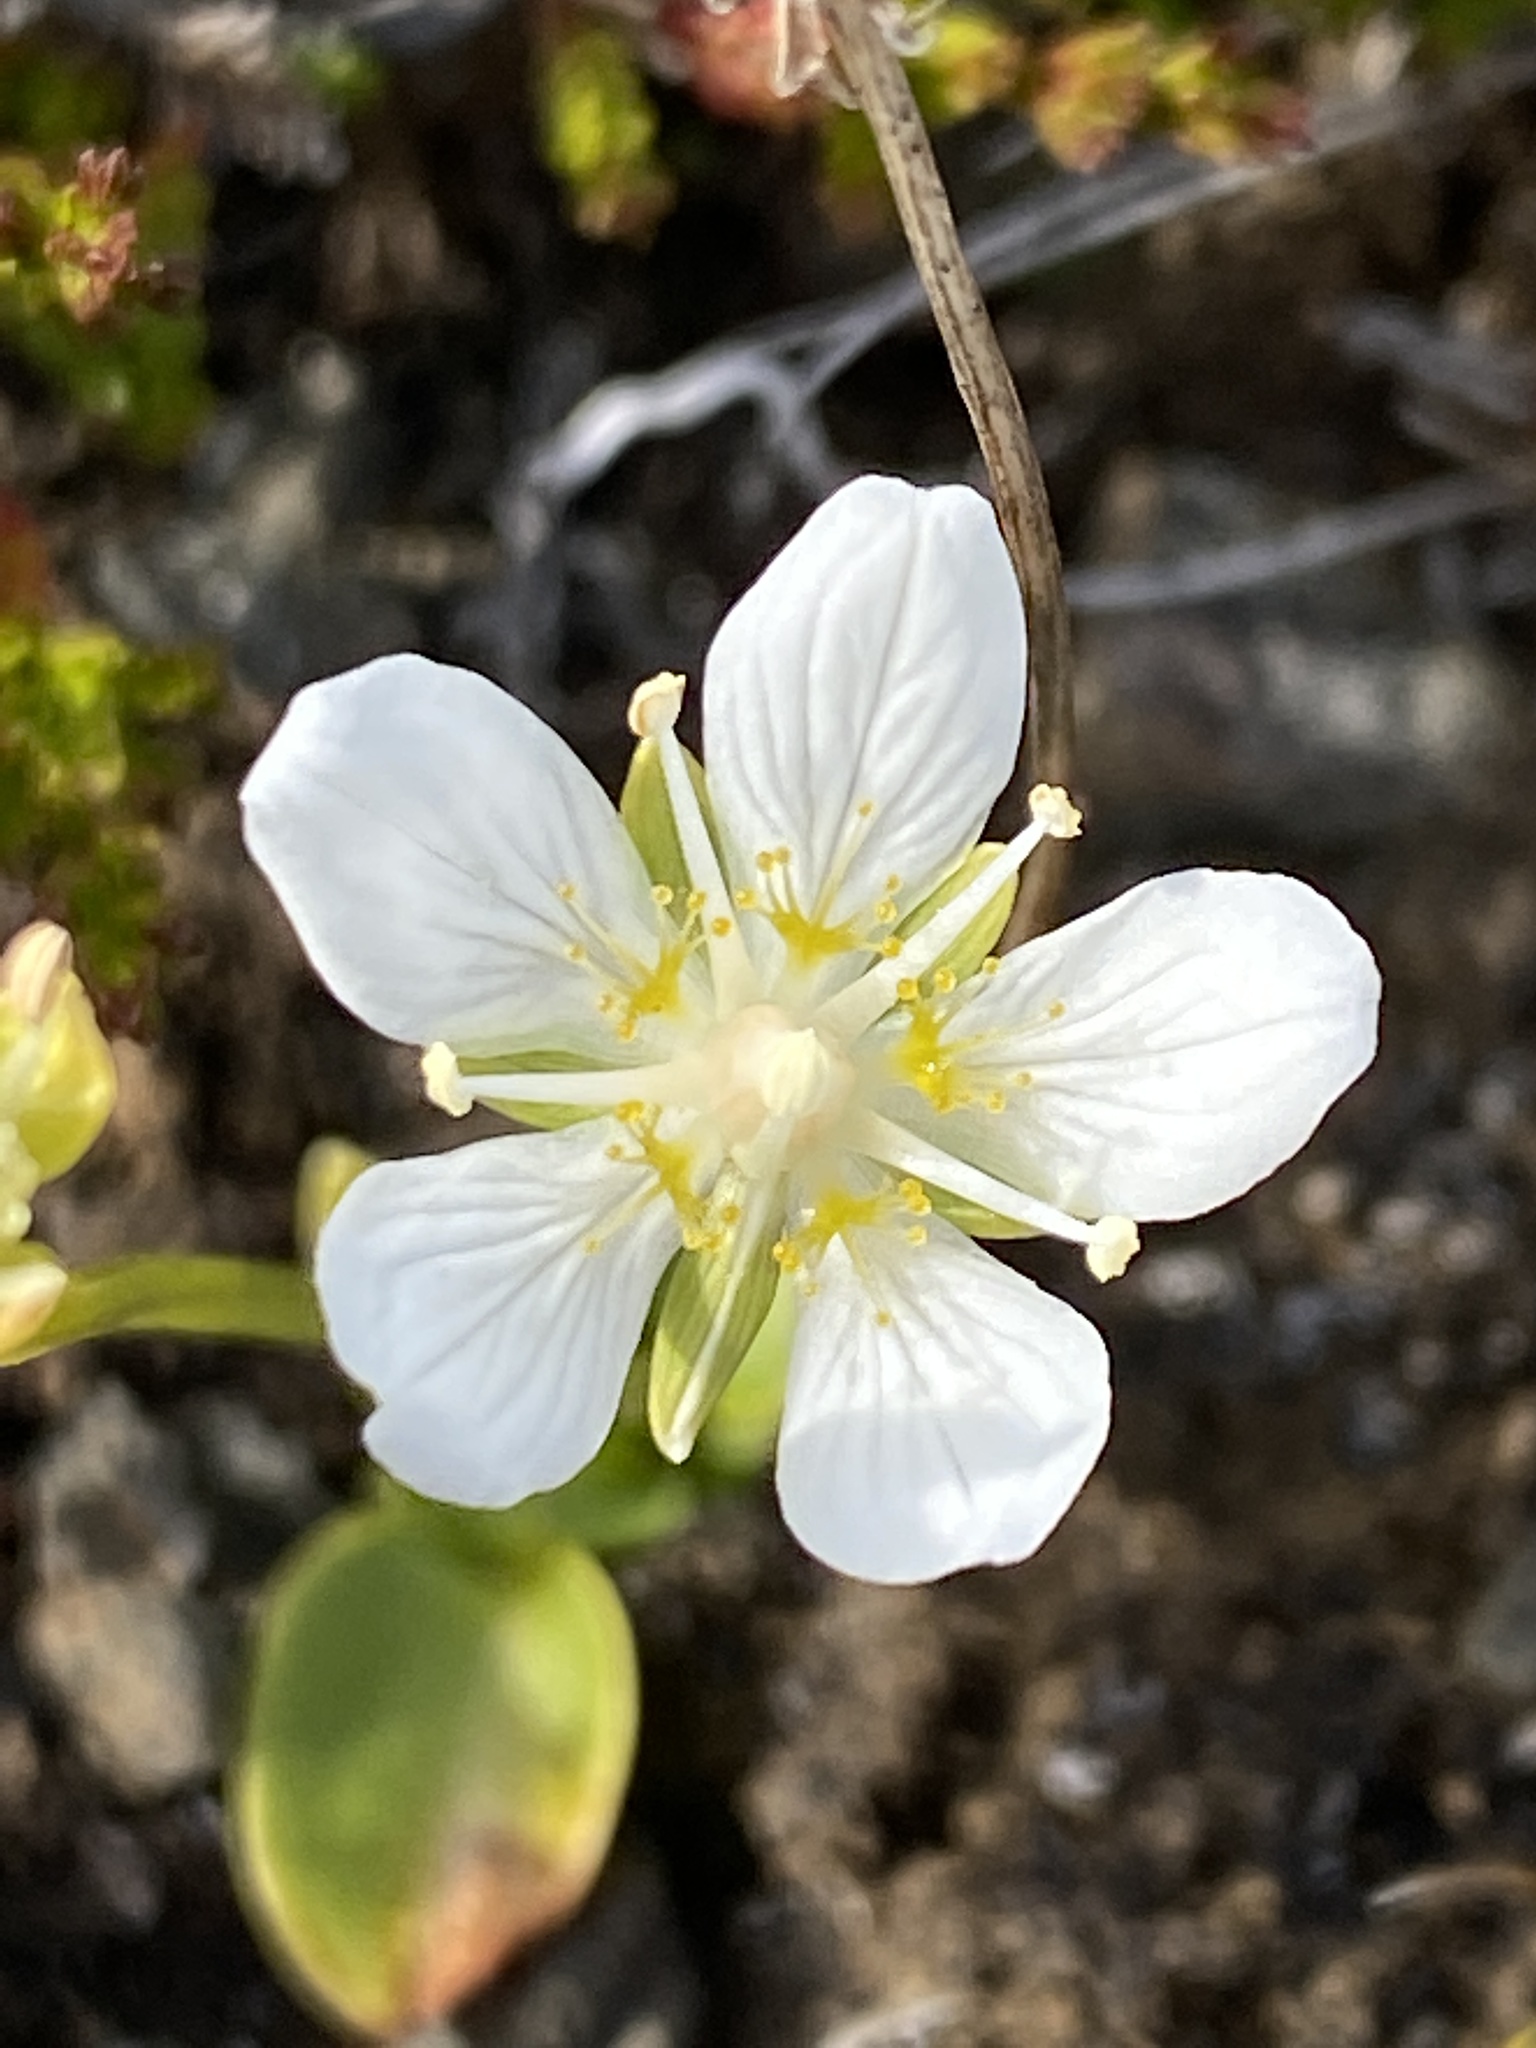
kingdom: Plantae
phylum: Tracheophyta
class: Magnoliopsida
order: Celastrales
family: Parnassiaceae
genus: Parnassia
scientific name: Parnassia palustris
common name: Grass-of-parnassus
